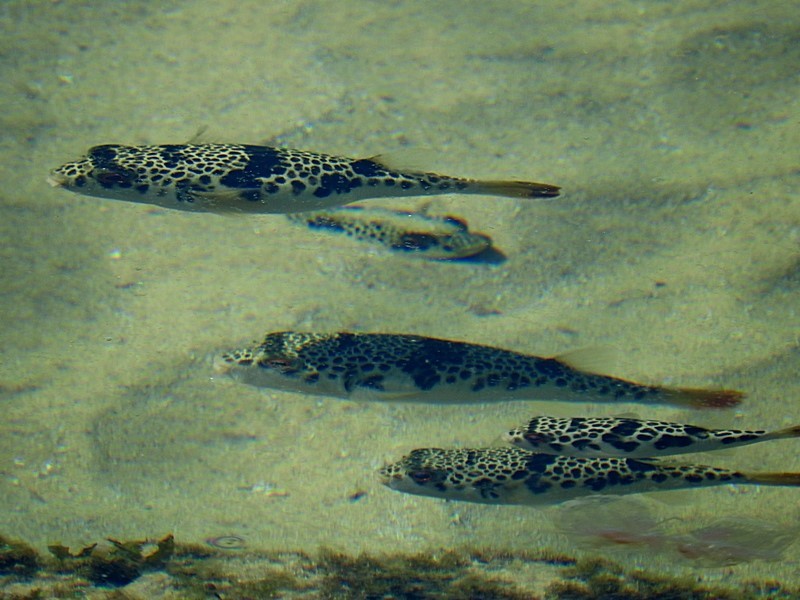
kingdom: Animalia
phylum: Chordata
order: Tetraodontiformes
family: Tetraodontidae
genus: Tetractenos
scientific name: Tetractenos glaber
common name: Smooth toadfish
